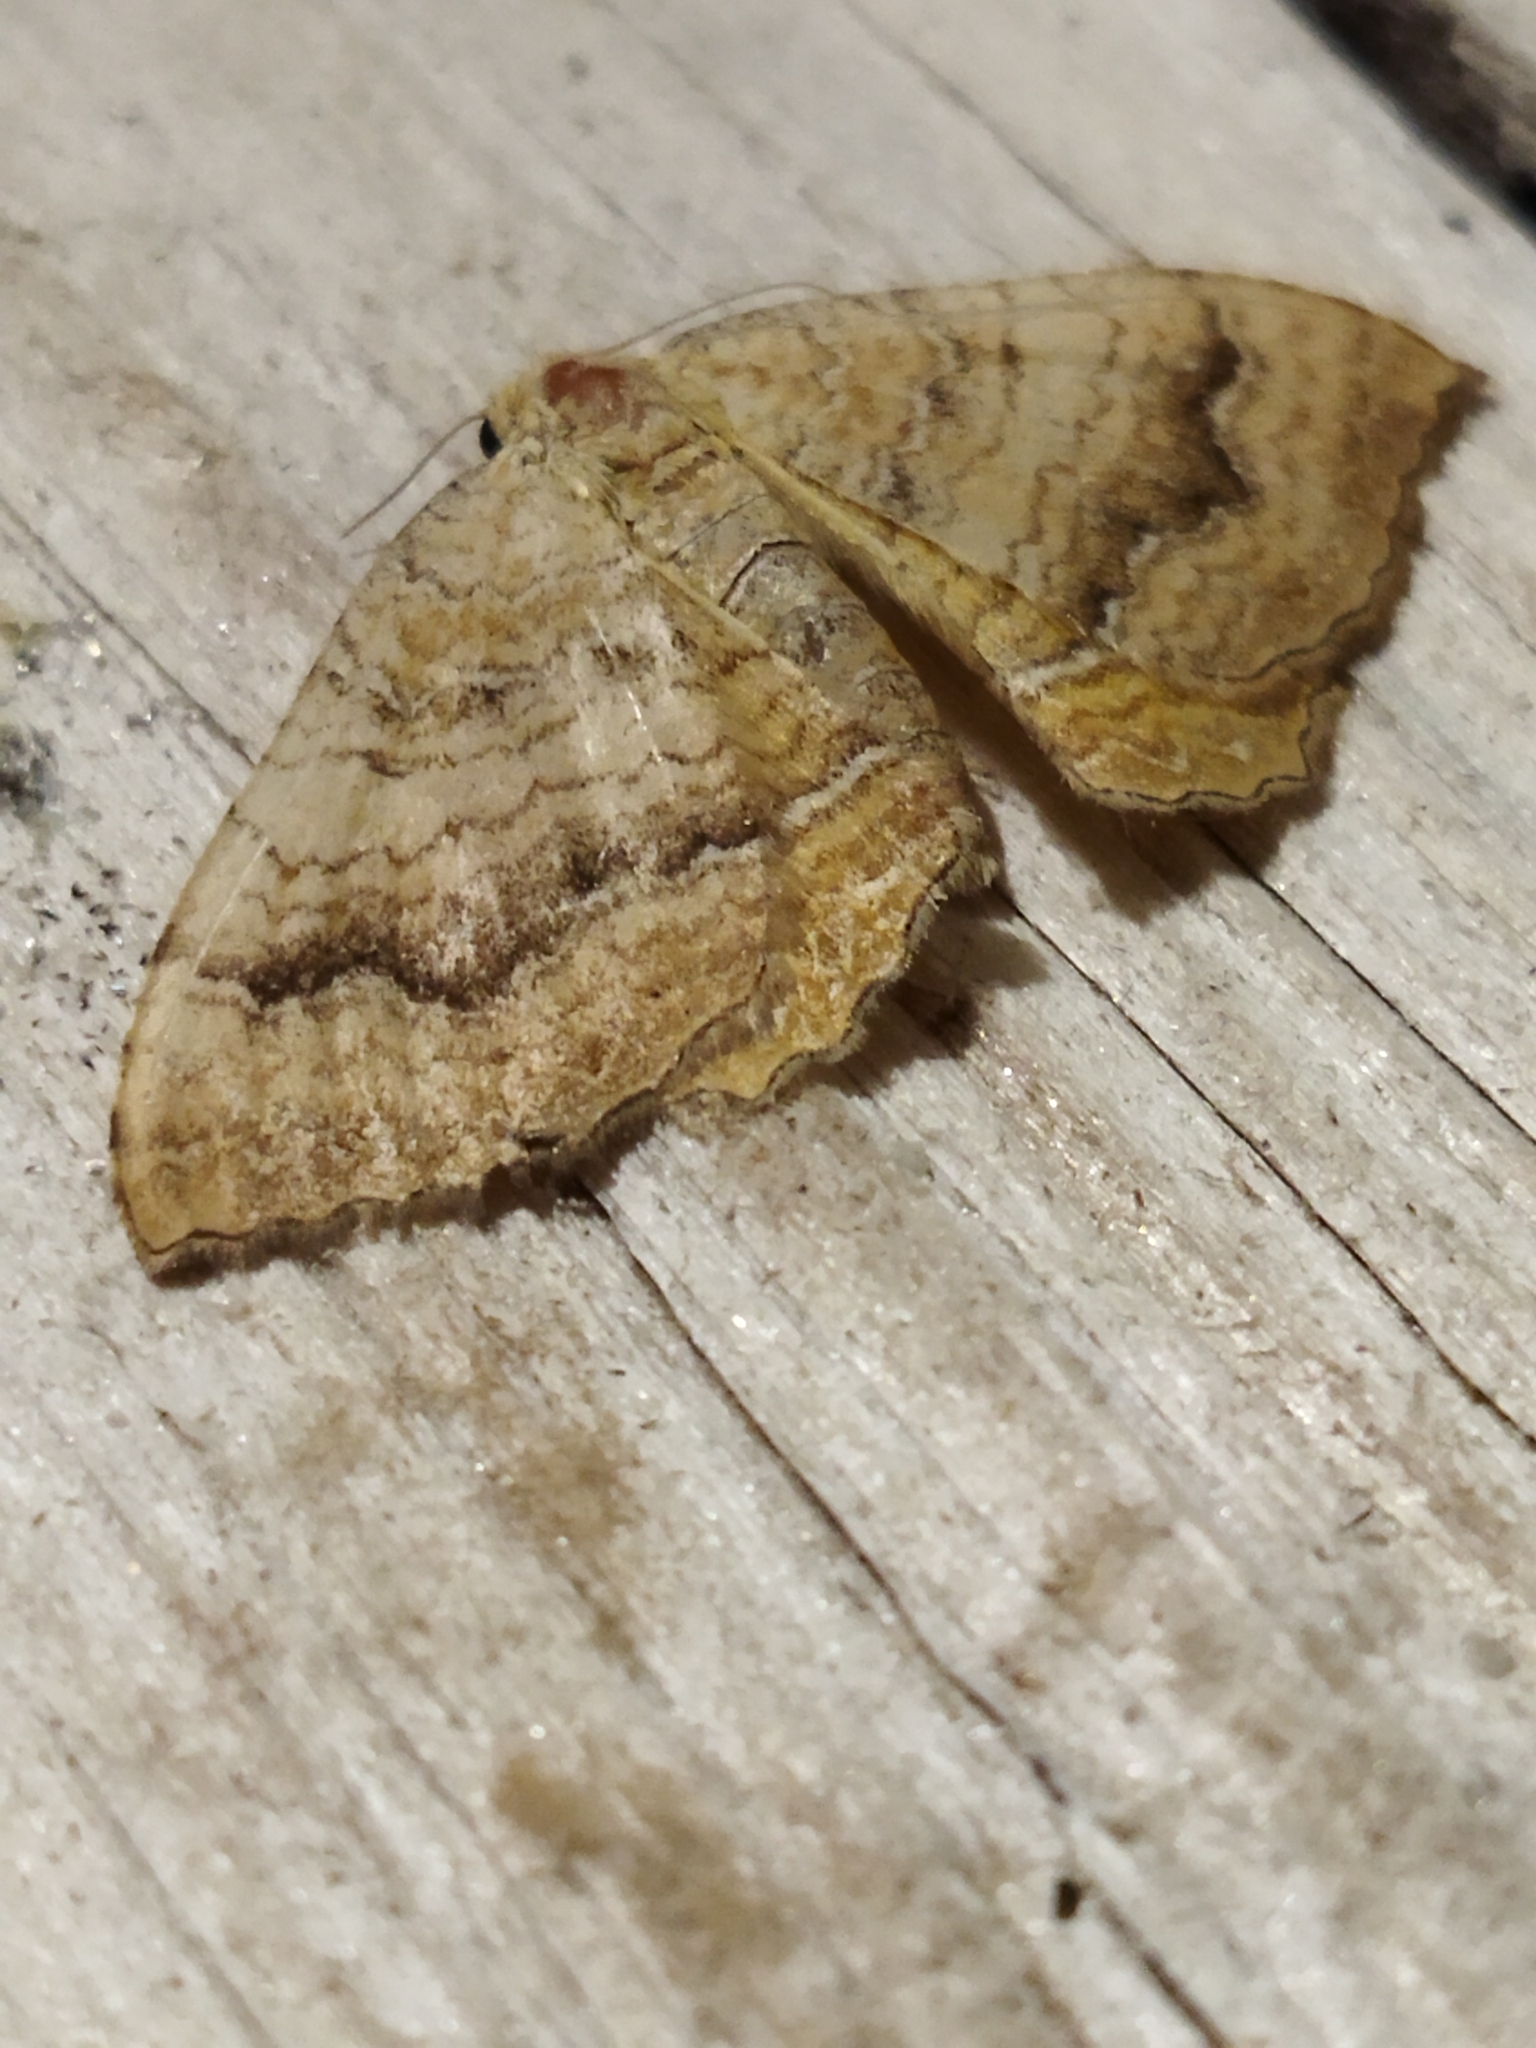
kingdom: Animalia
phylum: Arthropoda
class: Insecta
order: Lepidoptera
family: Geometridae
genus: Camptogramma
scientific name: Camptogramma bilineata
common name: Yellow shell
